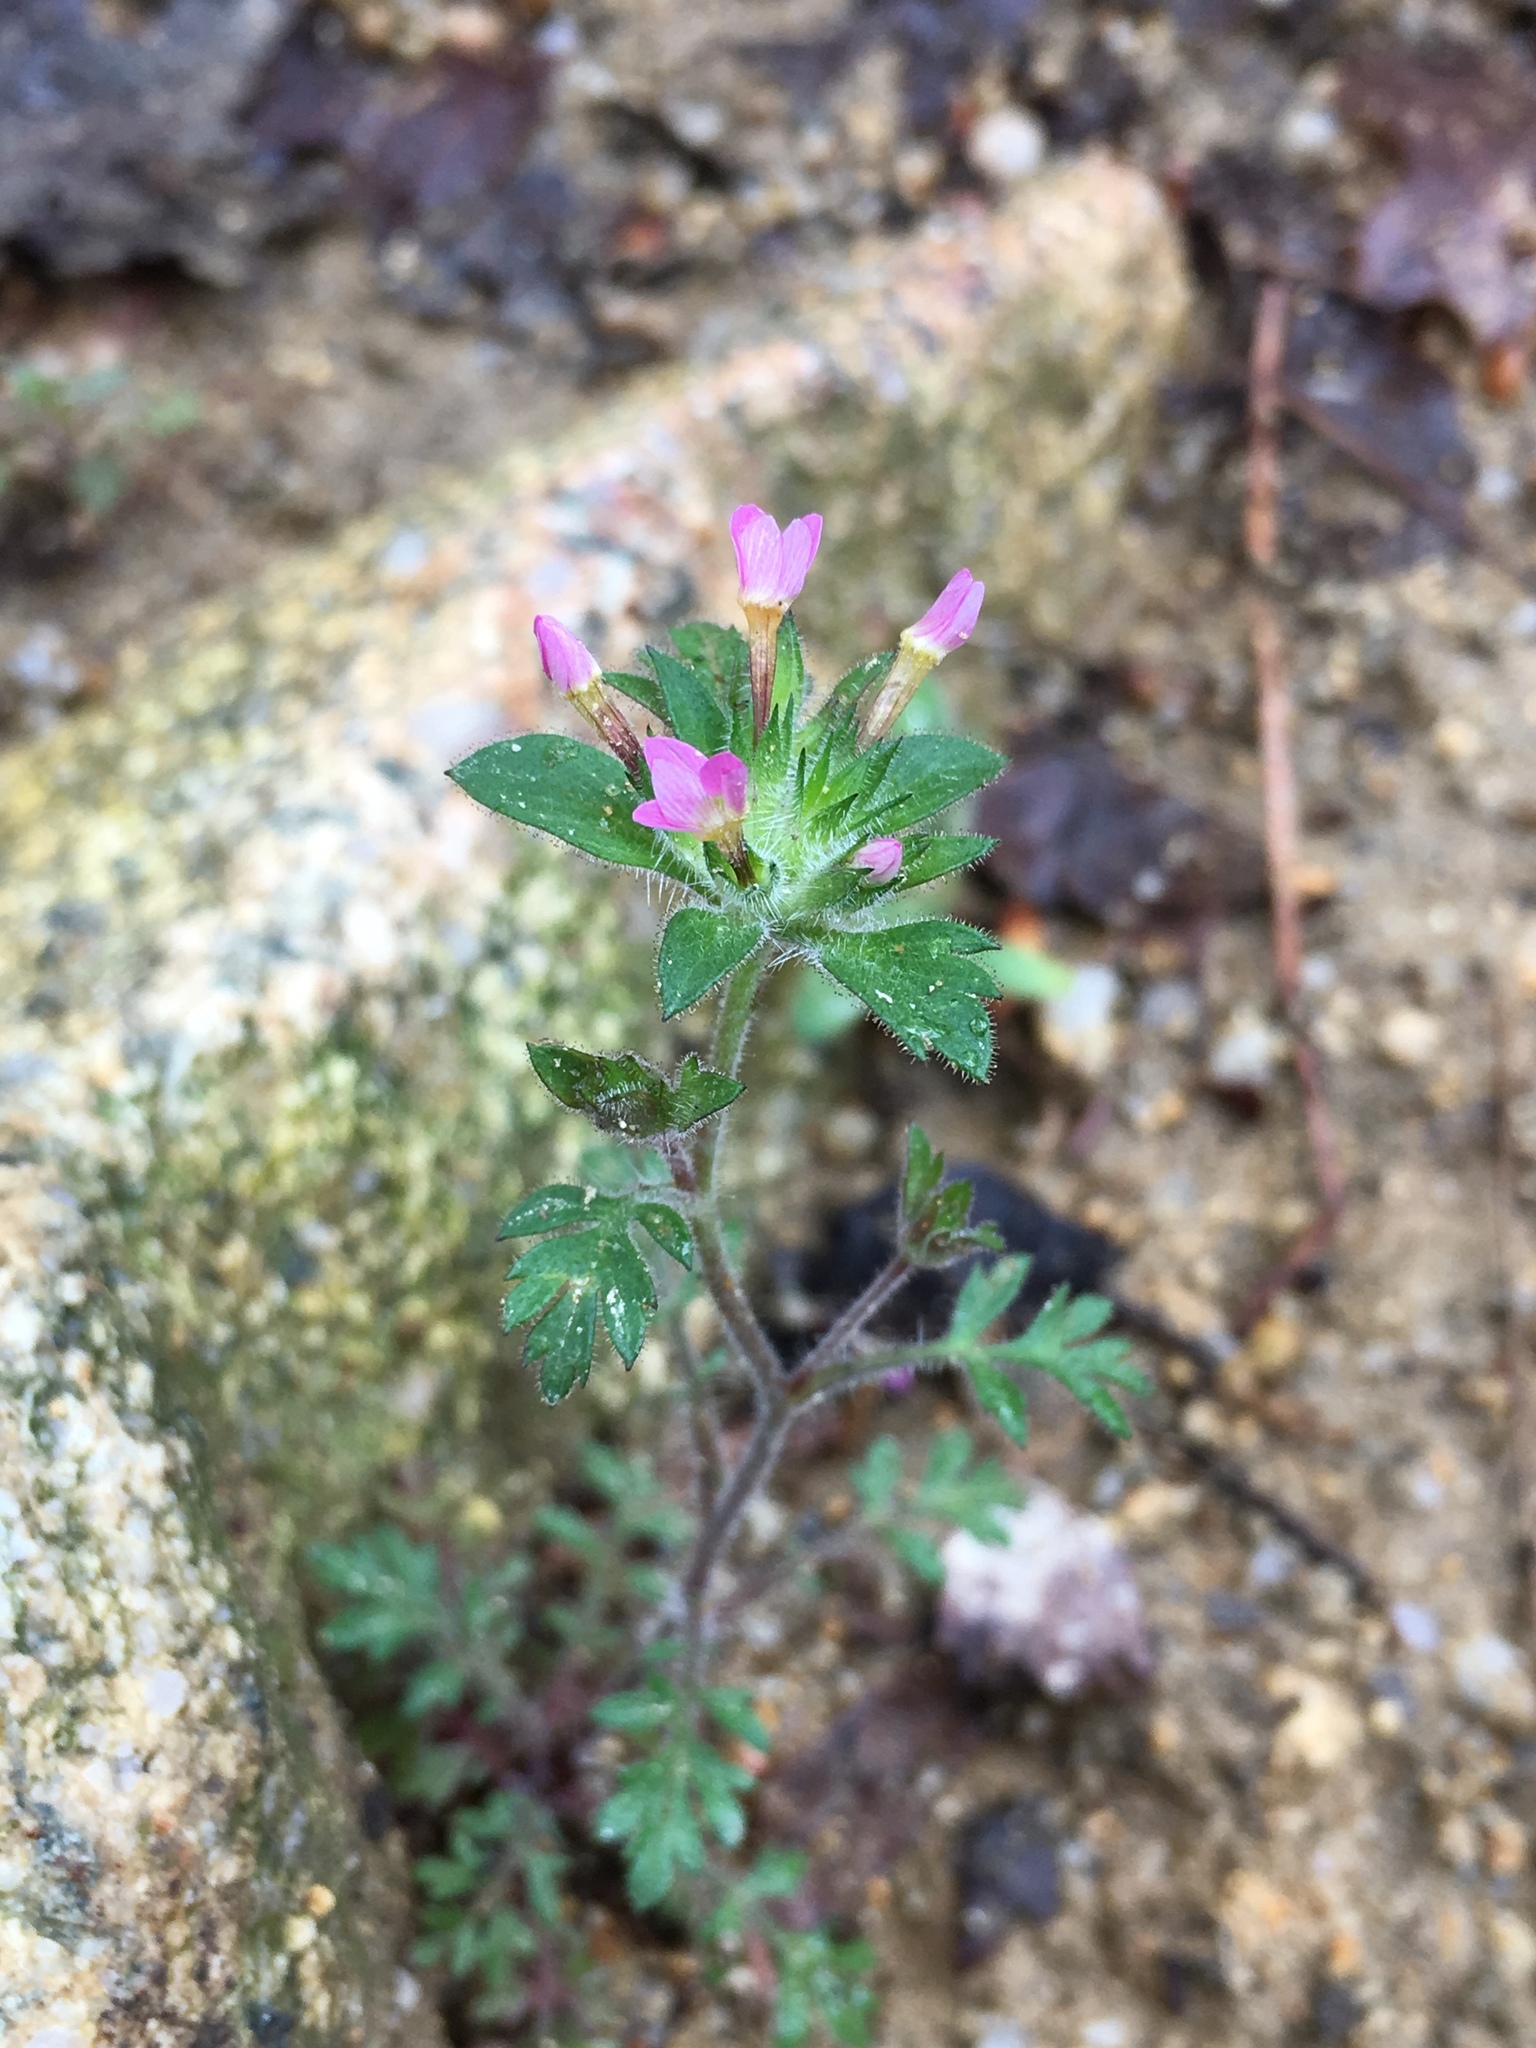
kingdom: Plantae
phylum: Tracheophyta
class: Magnoliopsida
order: Ericales
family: Polemoniaceae
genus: Collomia
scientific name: Collomia heterophylla
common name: Variable-leaved collomia
